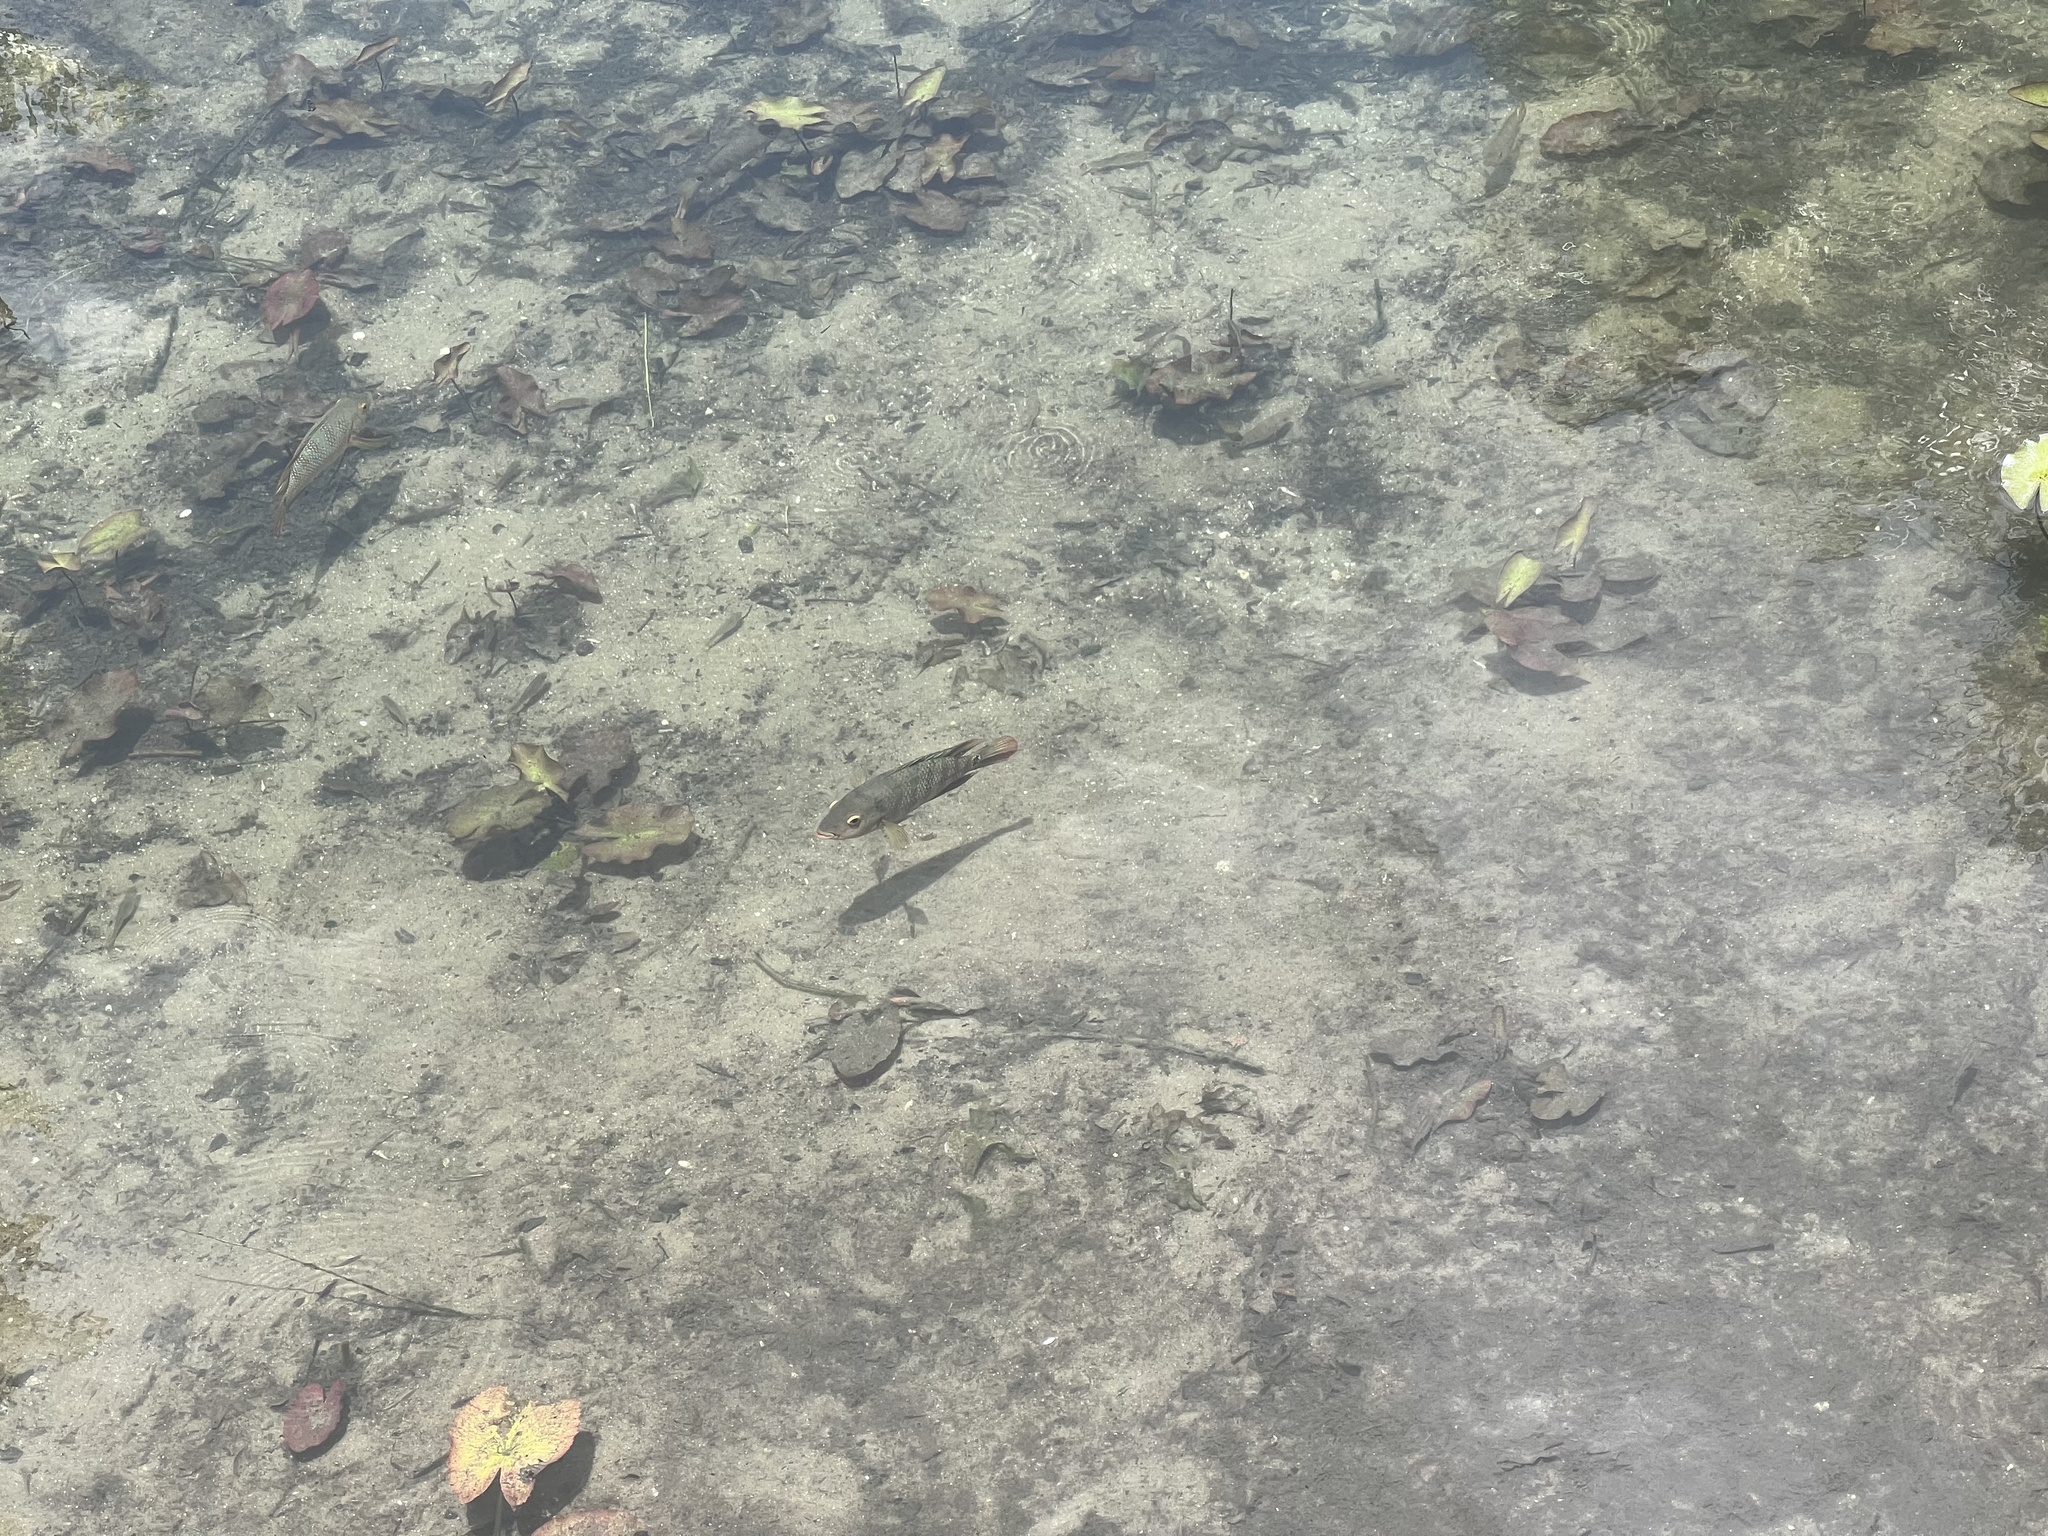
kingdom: Animalia
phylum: Chordata
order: Perciformes
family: Cichlidae
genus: Mayaheros
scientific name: Mayaheros urophthalmus
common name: Mayan cichlid
